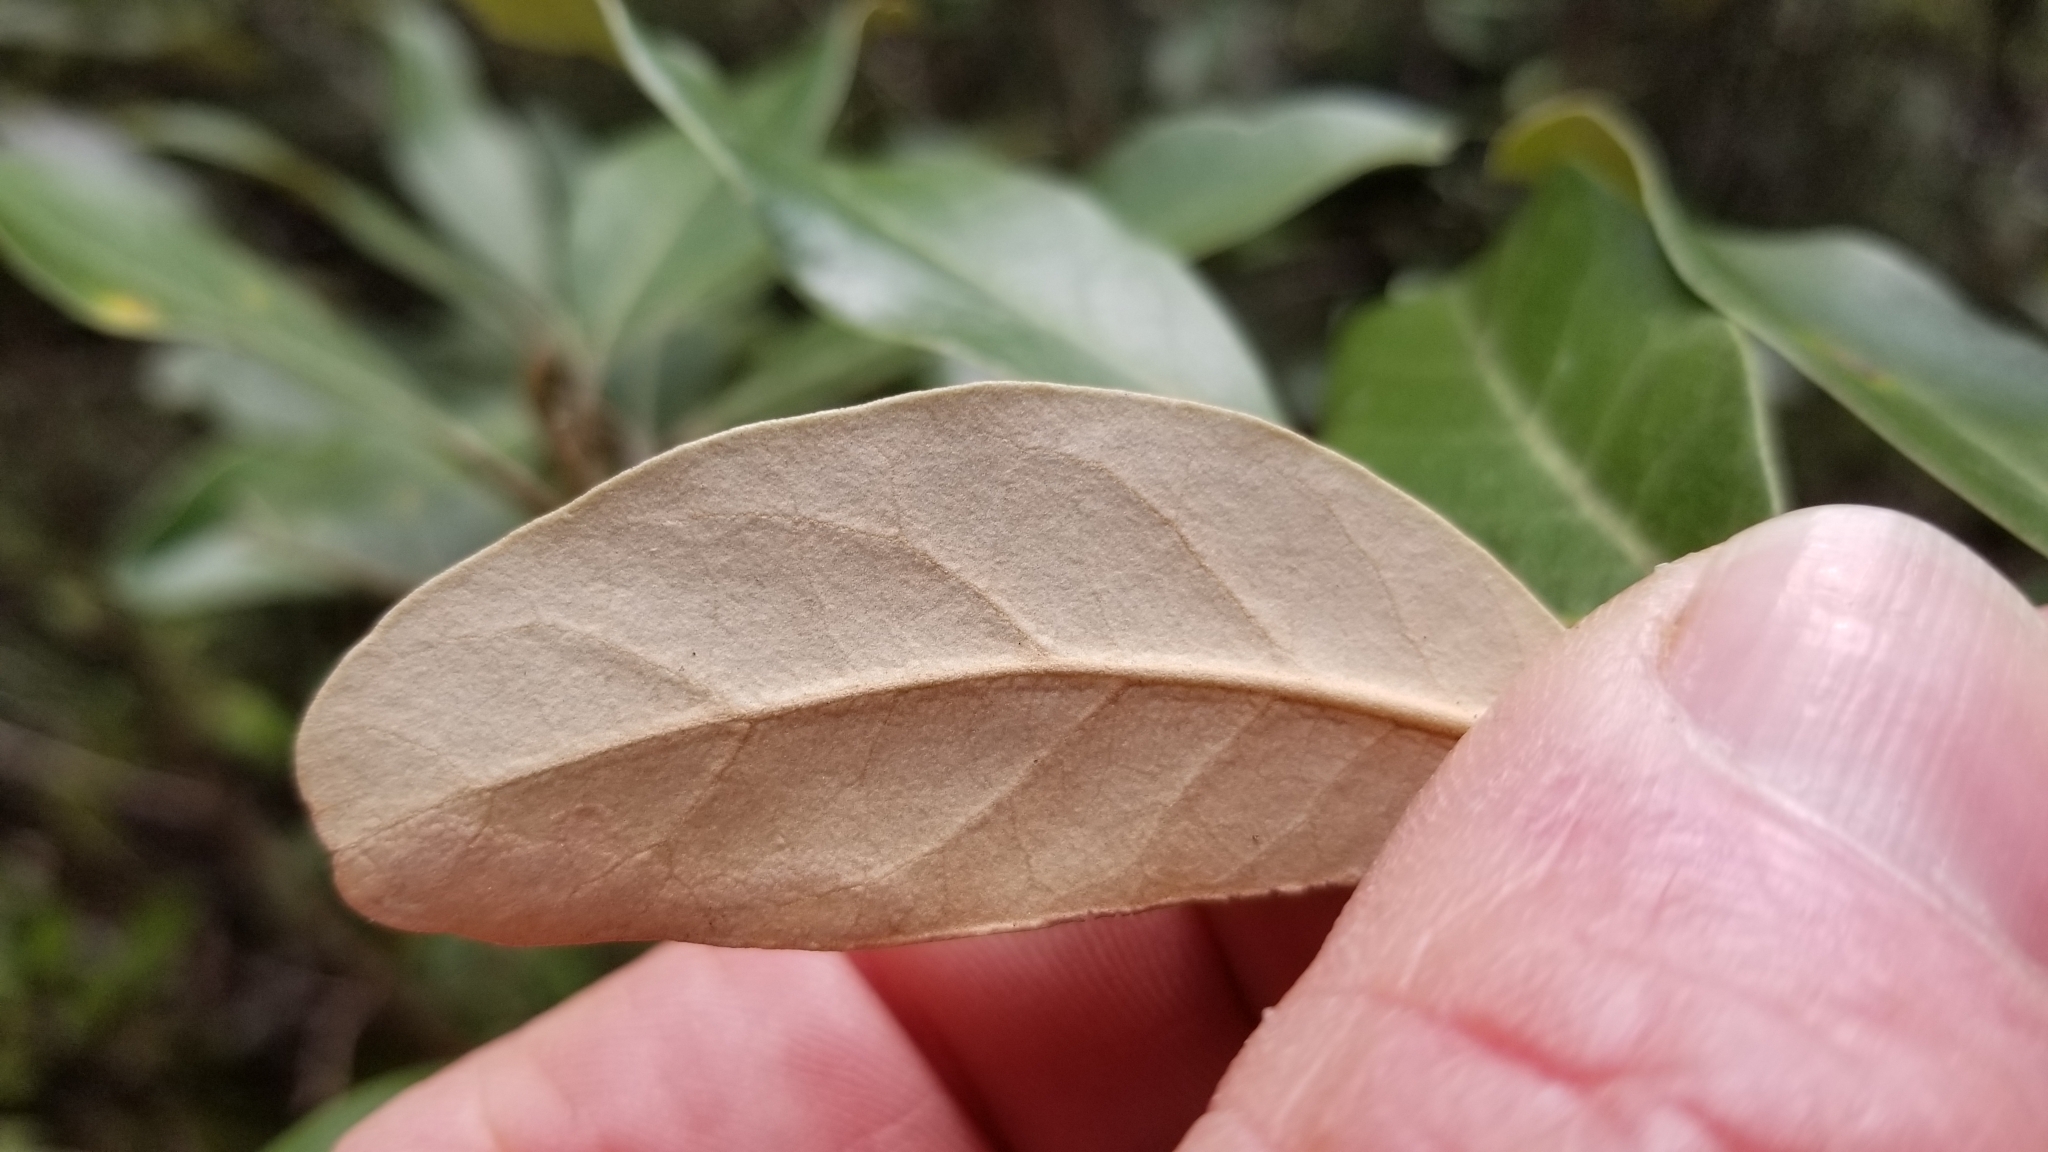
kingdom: Plantae
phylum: Tracheophyta
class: Magnoliopsida
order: Asterales
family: Asteraceae
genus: Olearia
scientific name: Olearia avicenniifolia
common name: Mangrove-leaf daisybush
